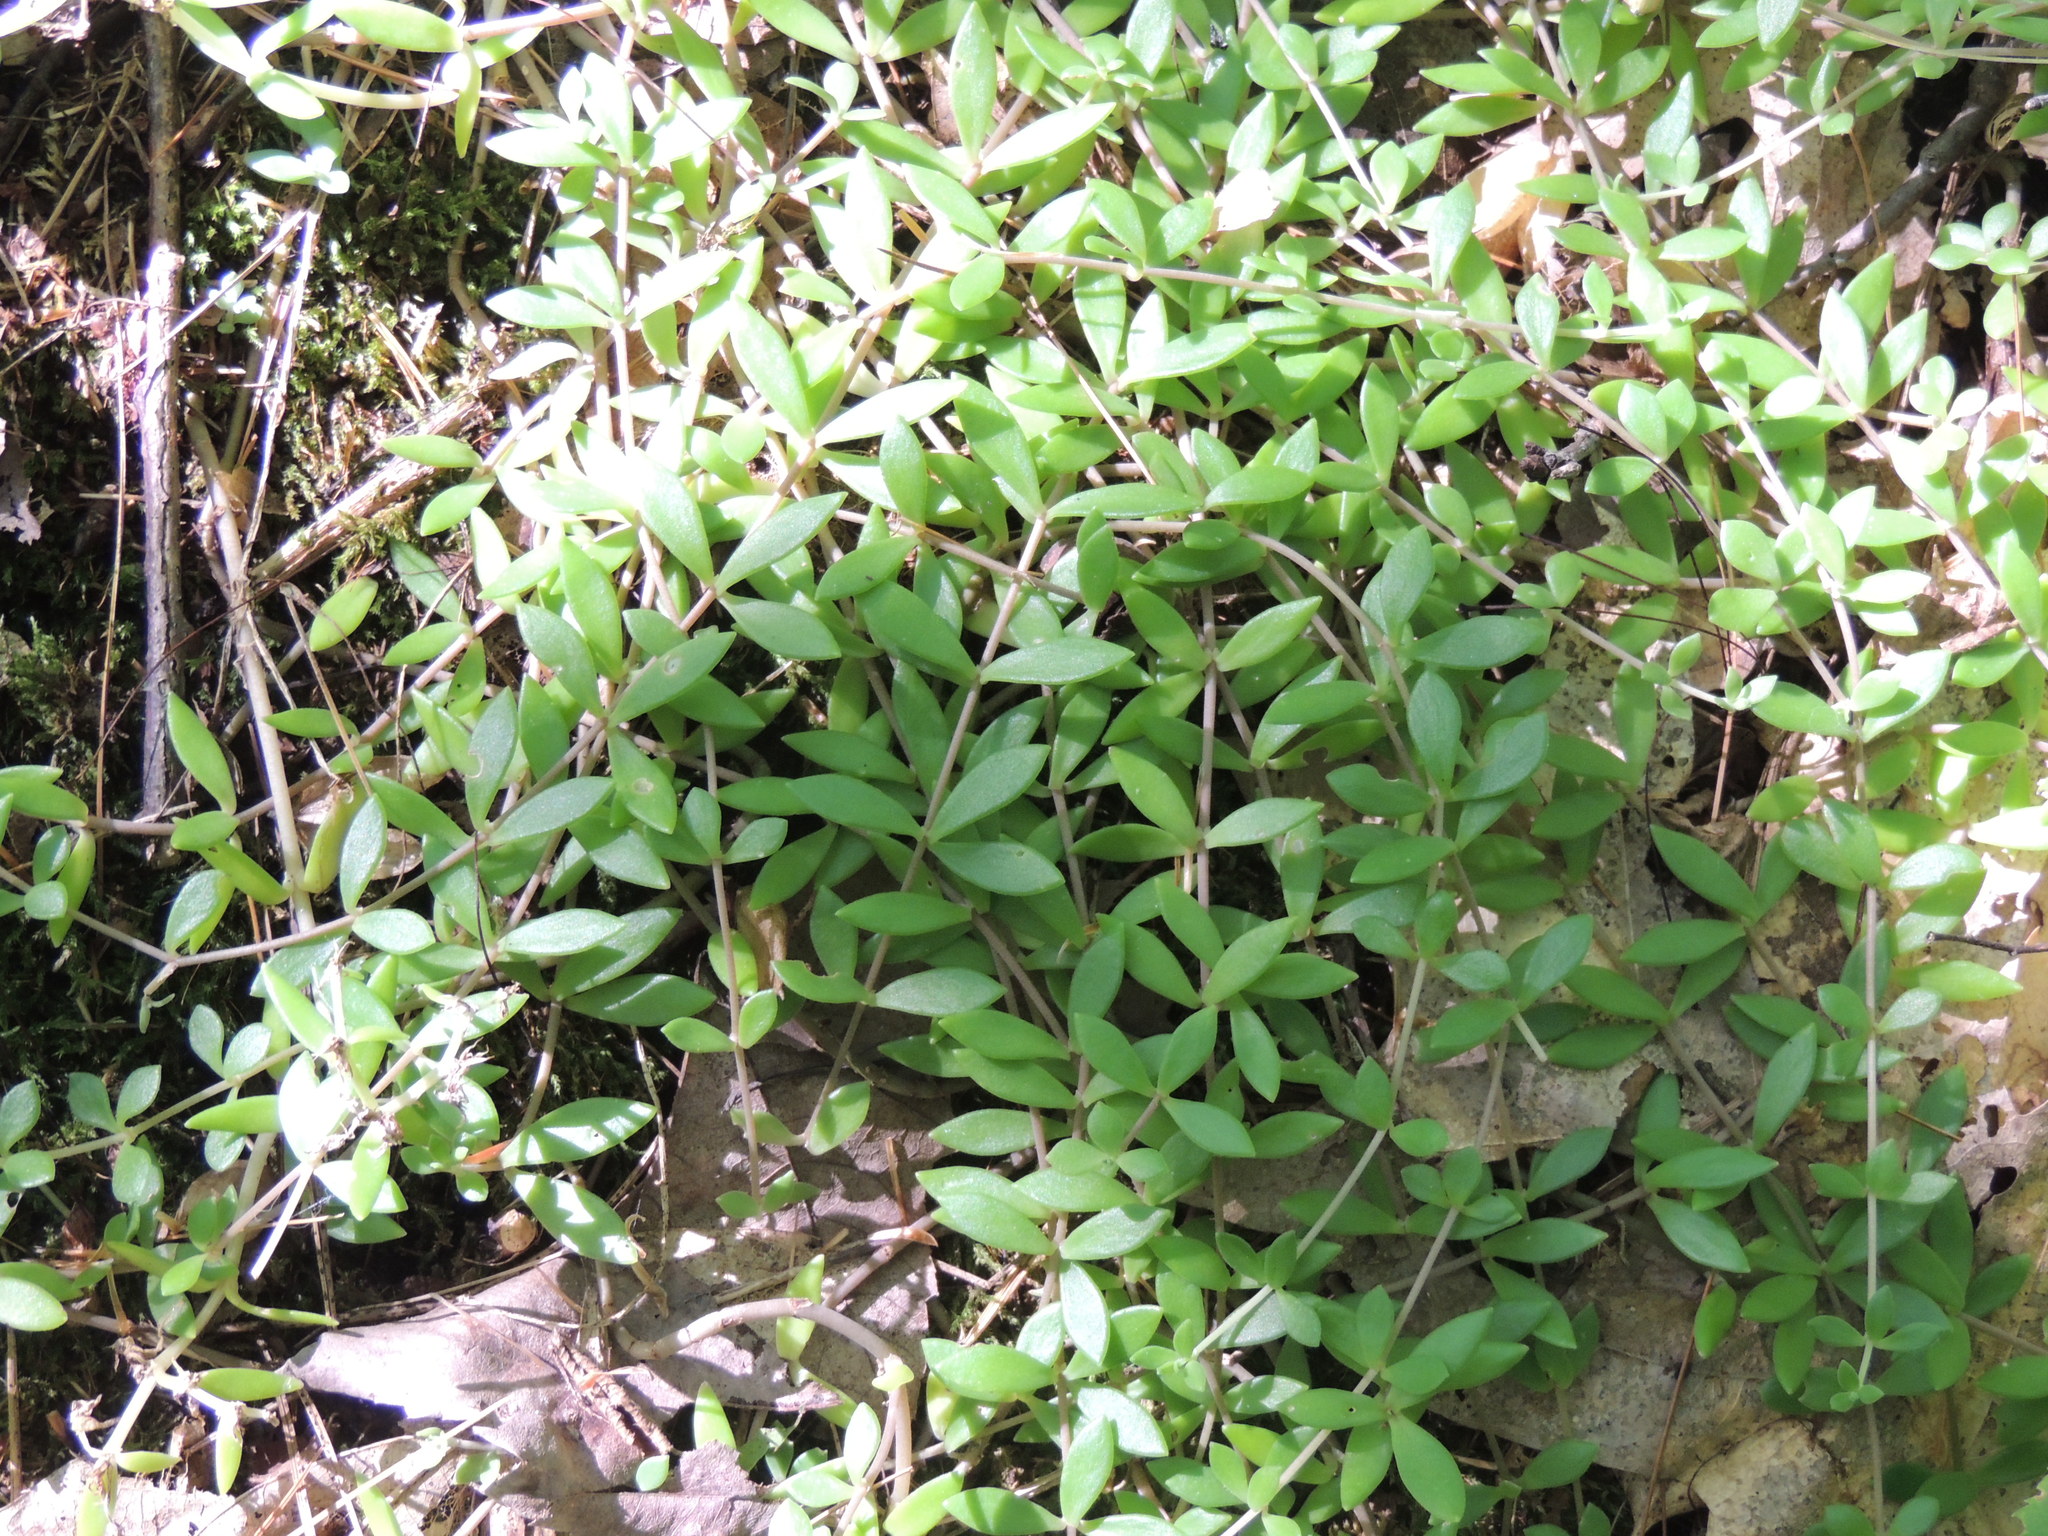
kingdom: Plantae
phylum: Tracheophyta
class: Magnoliopsida
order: Saxifragales
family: Crassulaceae
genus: Sedum
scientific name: Sedum sarmentosum
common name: Stringy stonecrop
